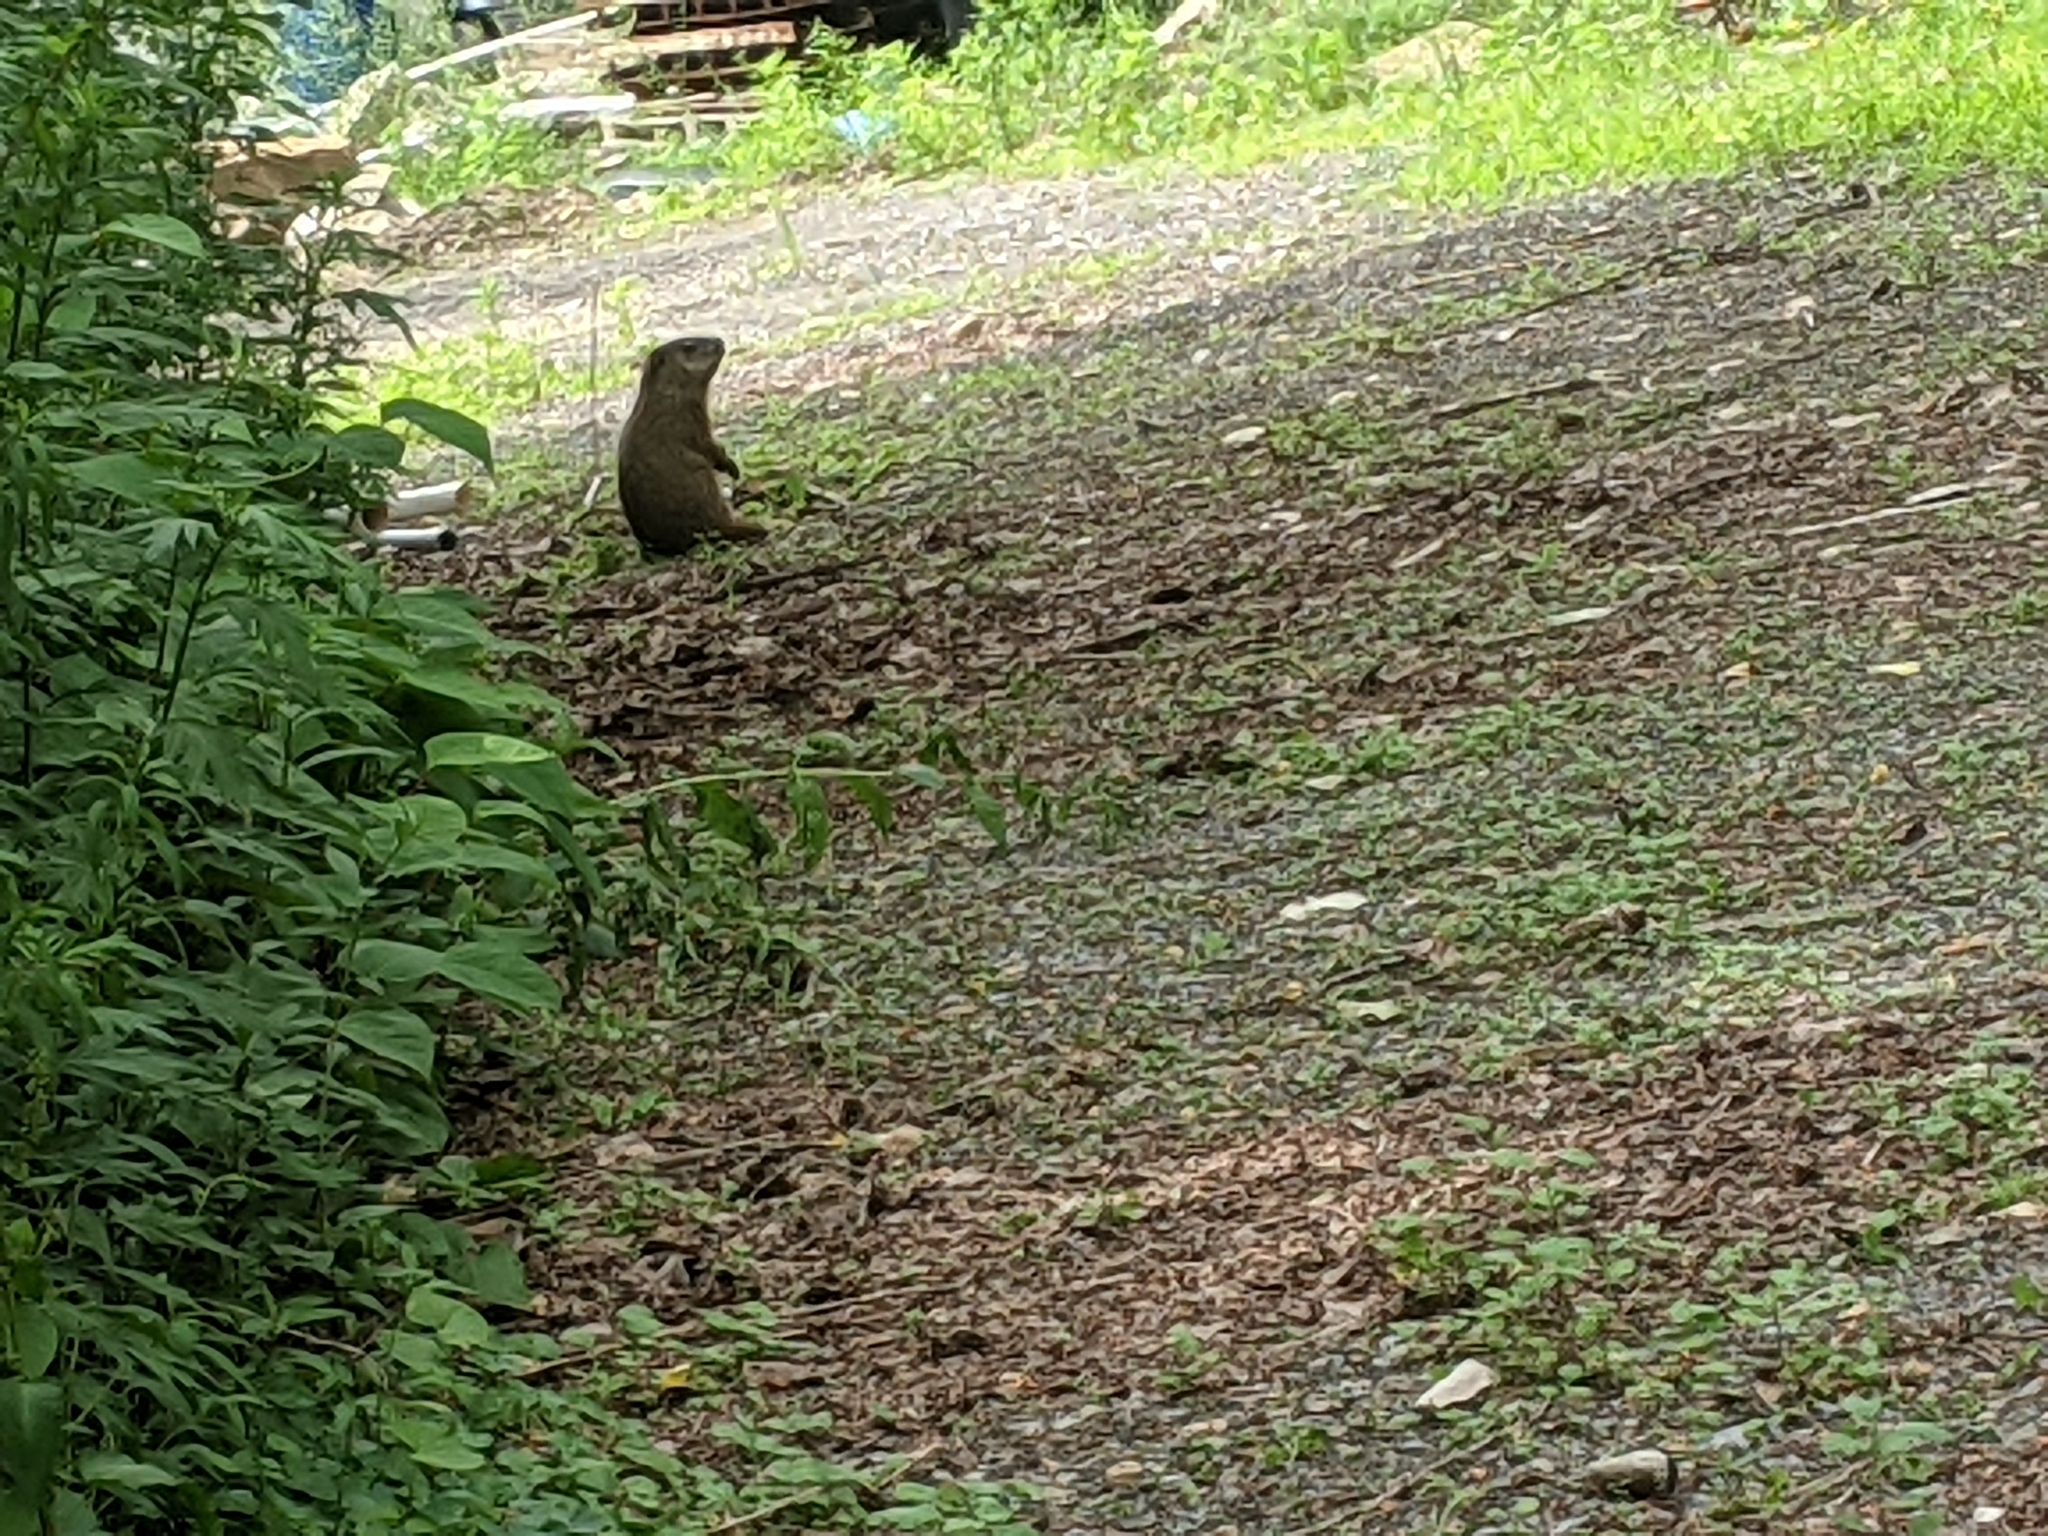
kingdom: Animalia
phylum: Chordata
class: Mammalia
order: Rodentia
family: Sciuridae
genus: Marmota
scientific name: Marmota monax
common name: Groundhog
